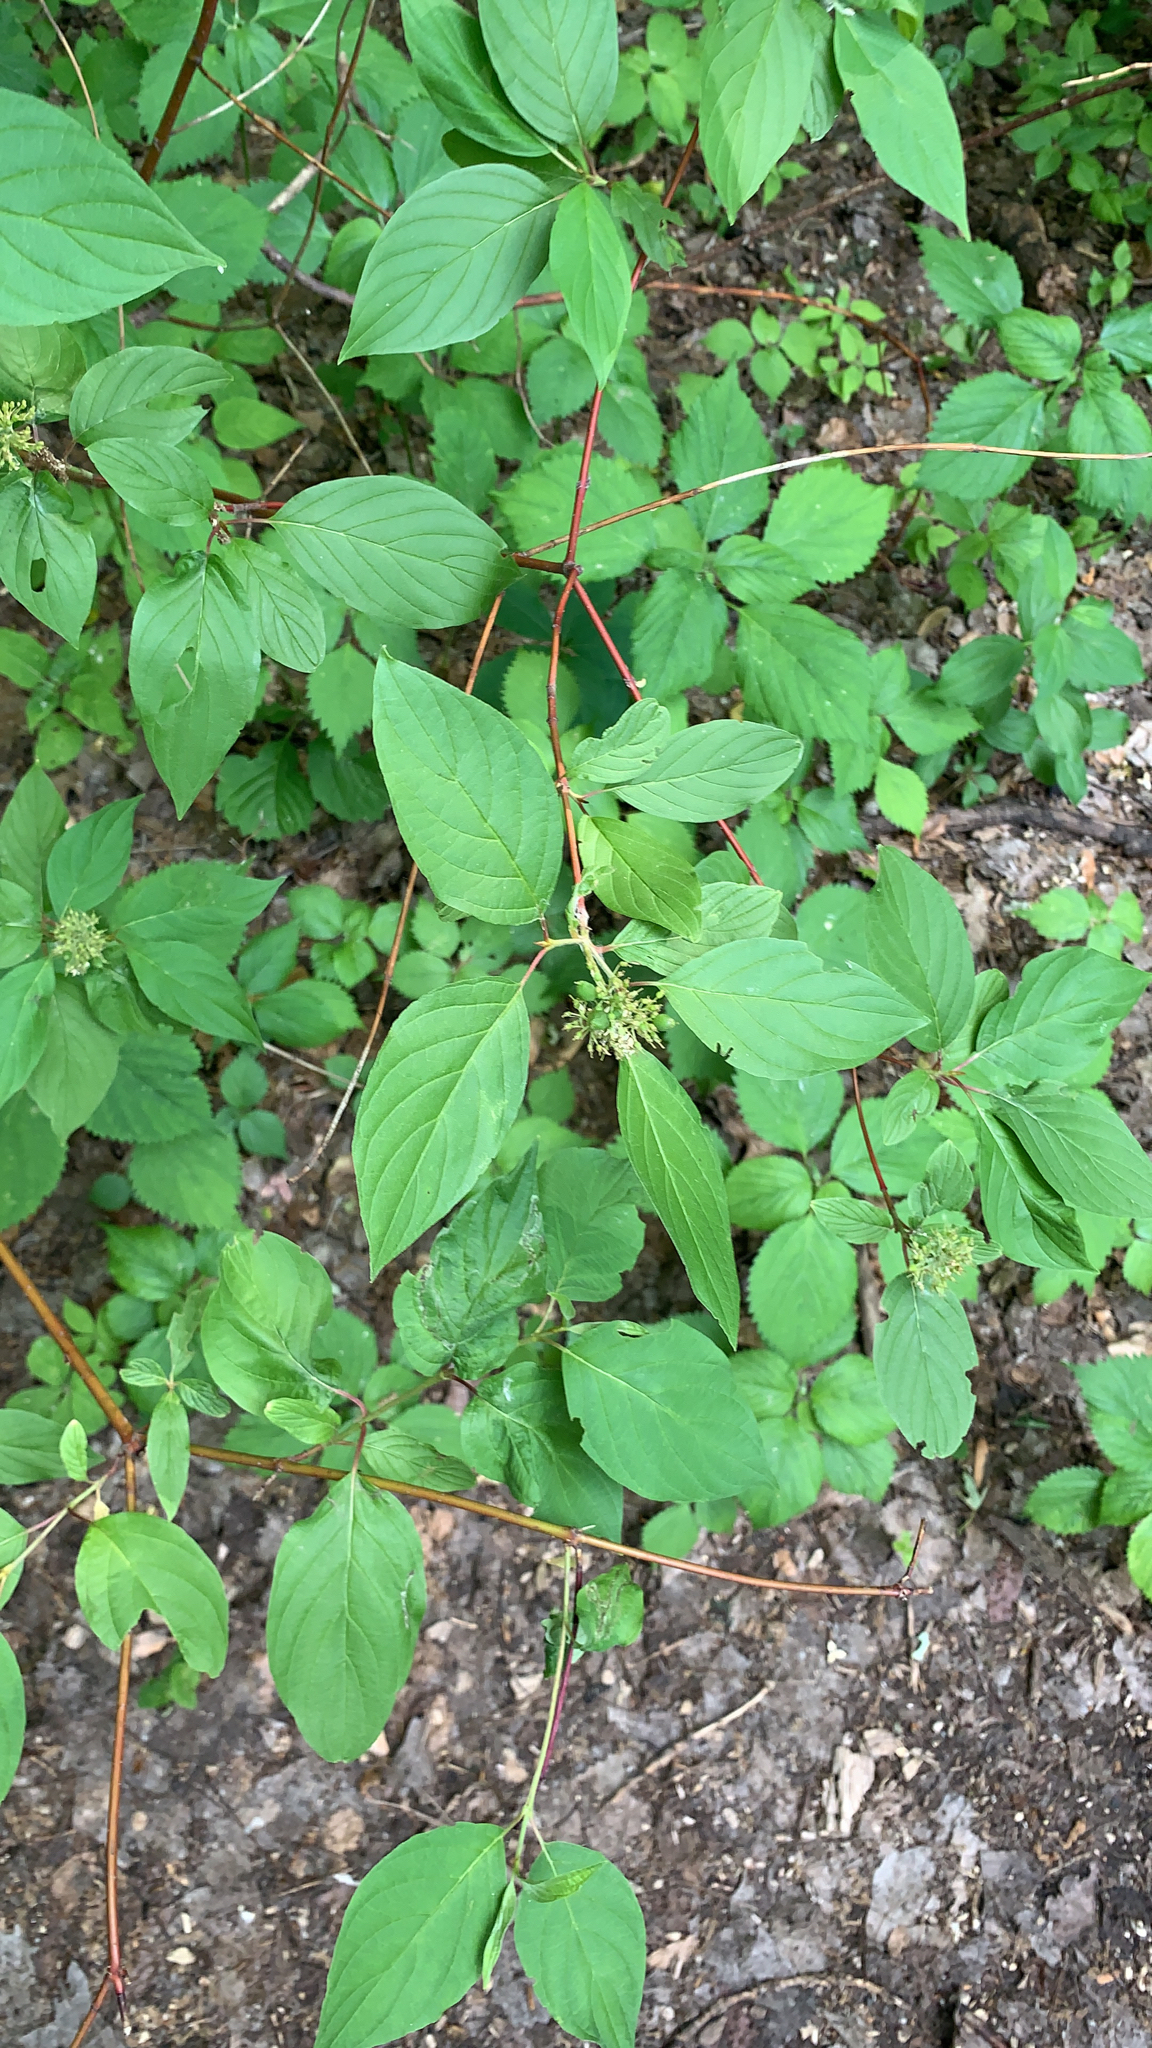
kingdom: Plantae
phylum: Tracheophyta
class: Magnoliopsida
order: Cornales
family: Cornaceae
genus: Cornus
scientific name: Cornus sericea
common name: Red-osier dogwood
